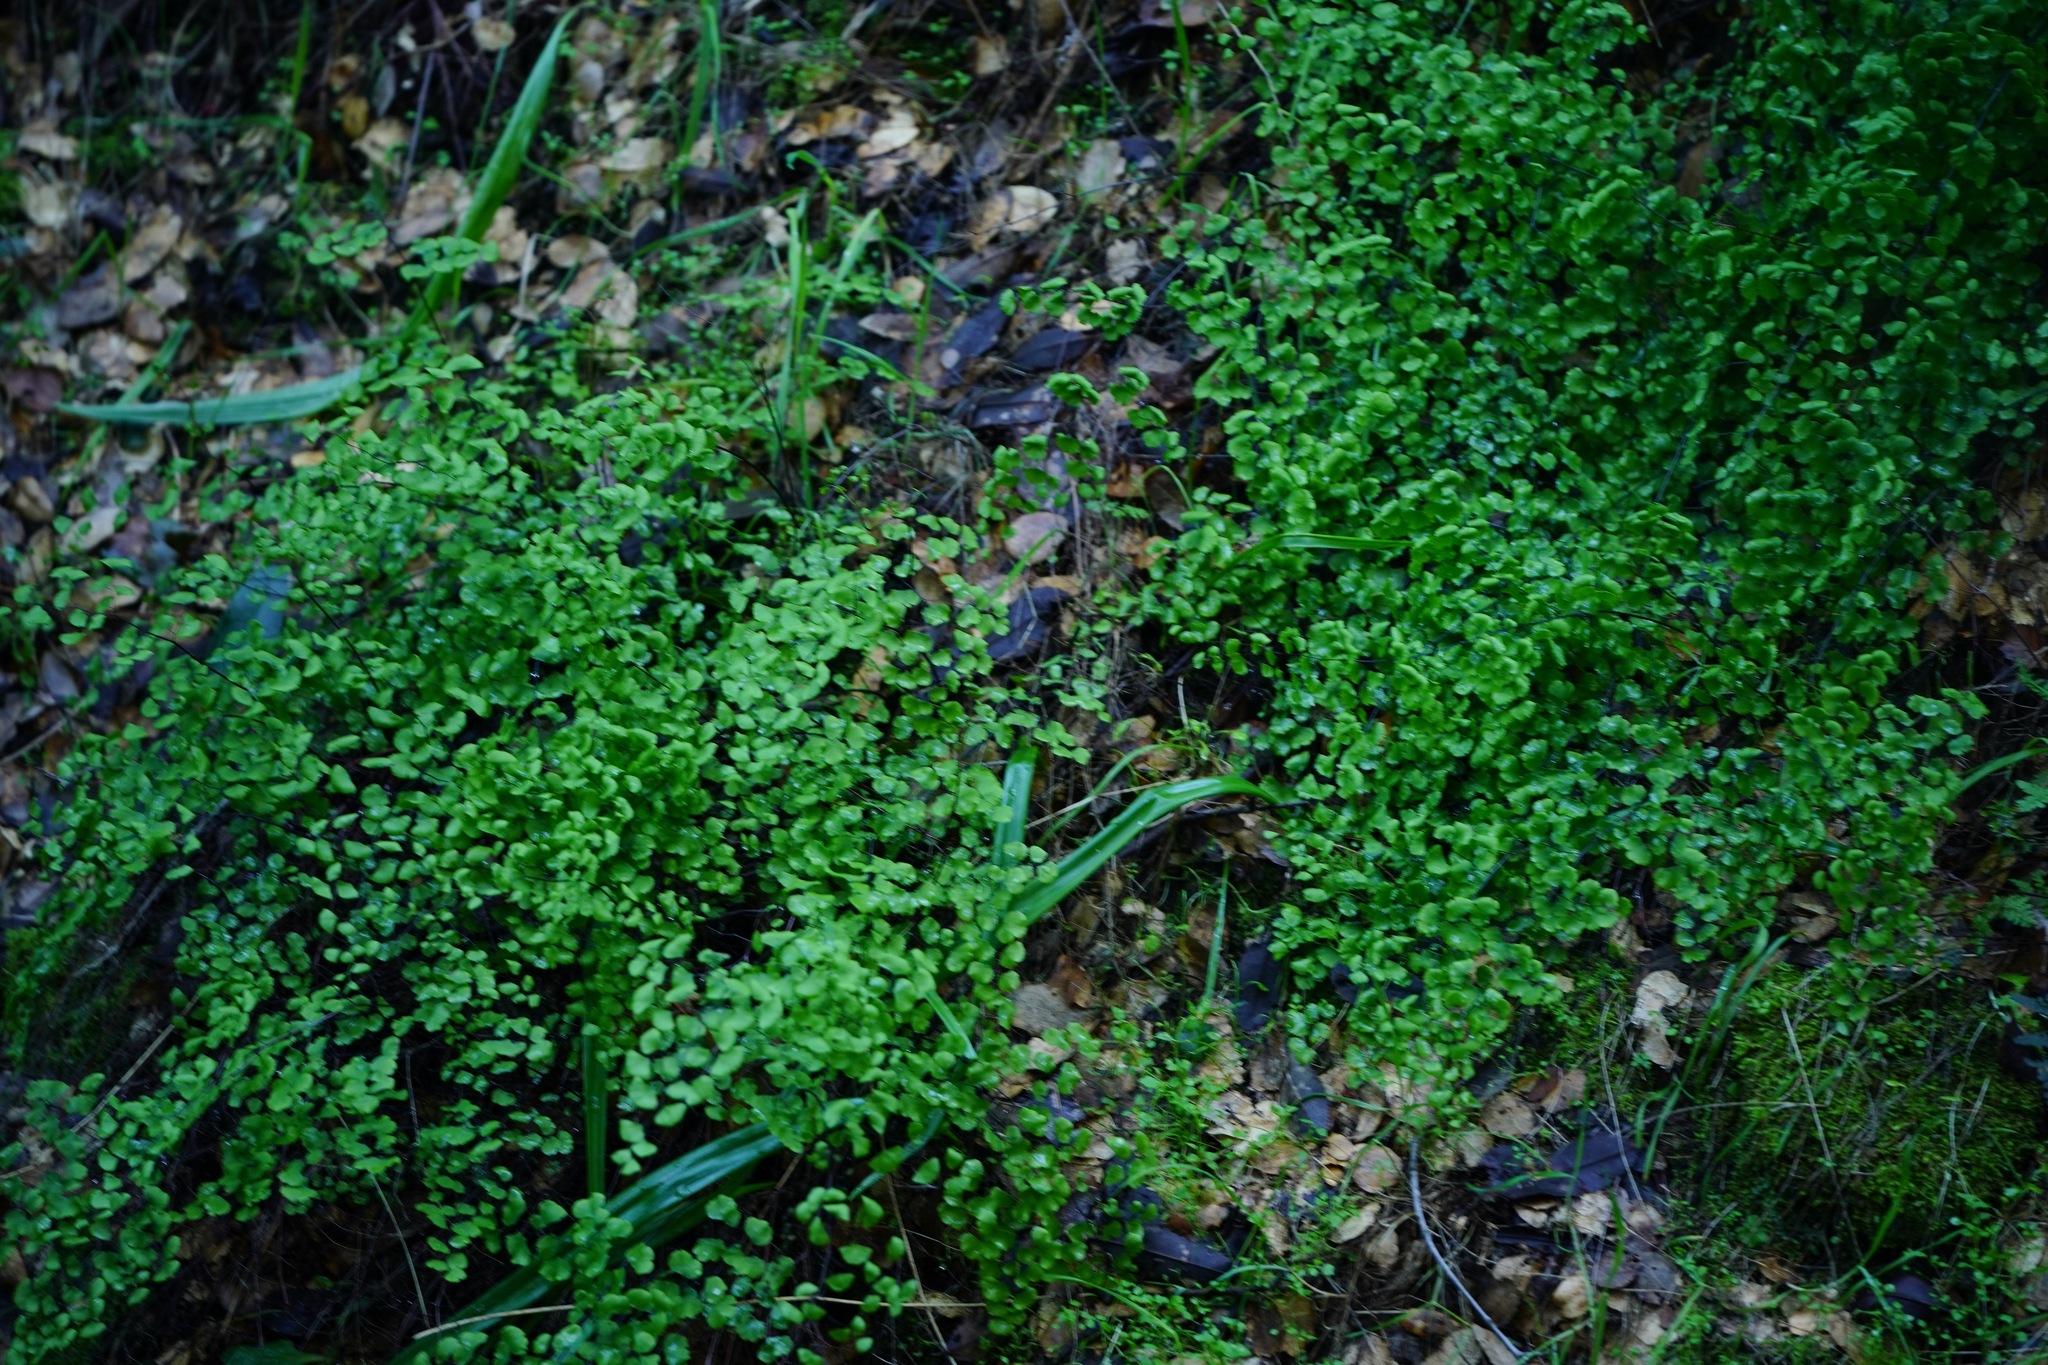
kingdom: Plantae
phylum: Tracheophyta
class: Polypodiopsida
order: Polypodiales
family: Pteridaceae
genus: Adiantum
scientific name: Adiantum jordanii
